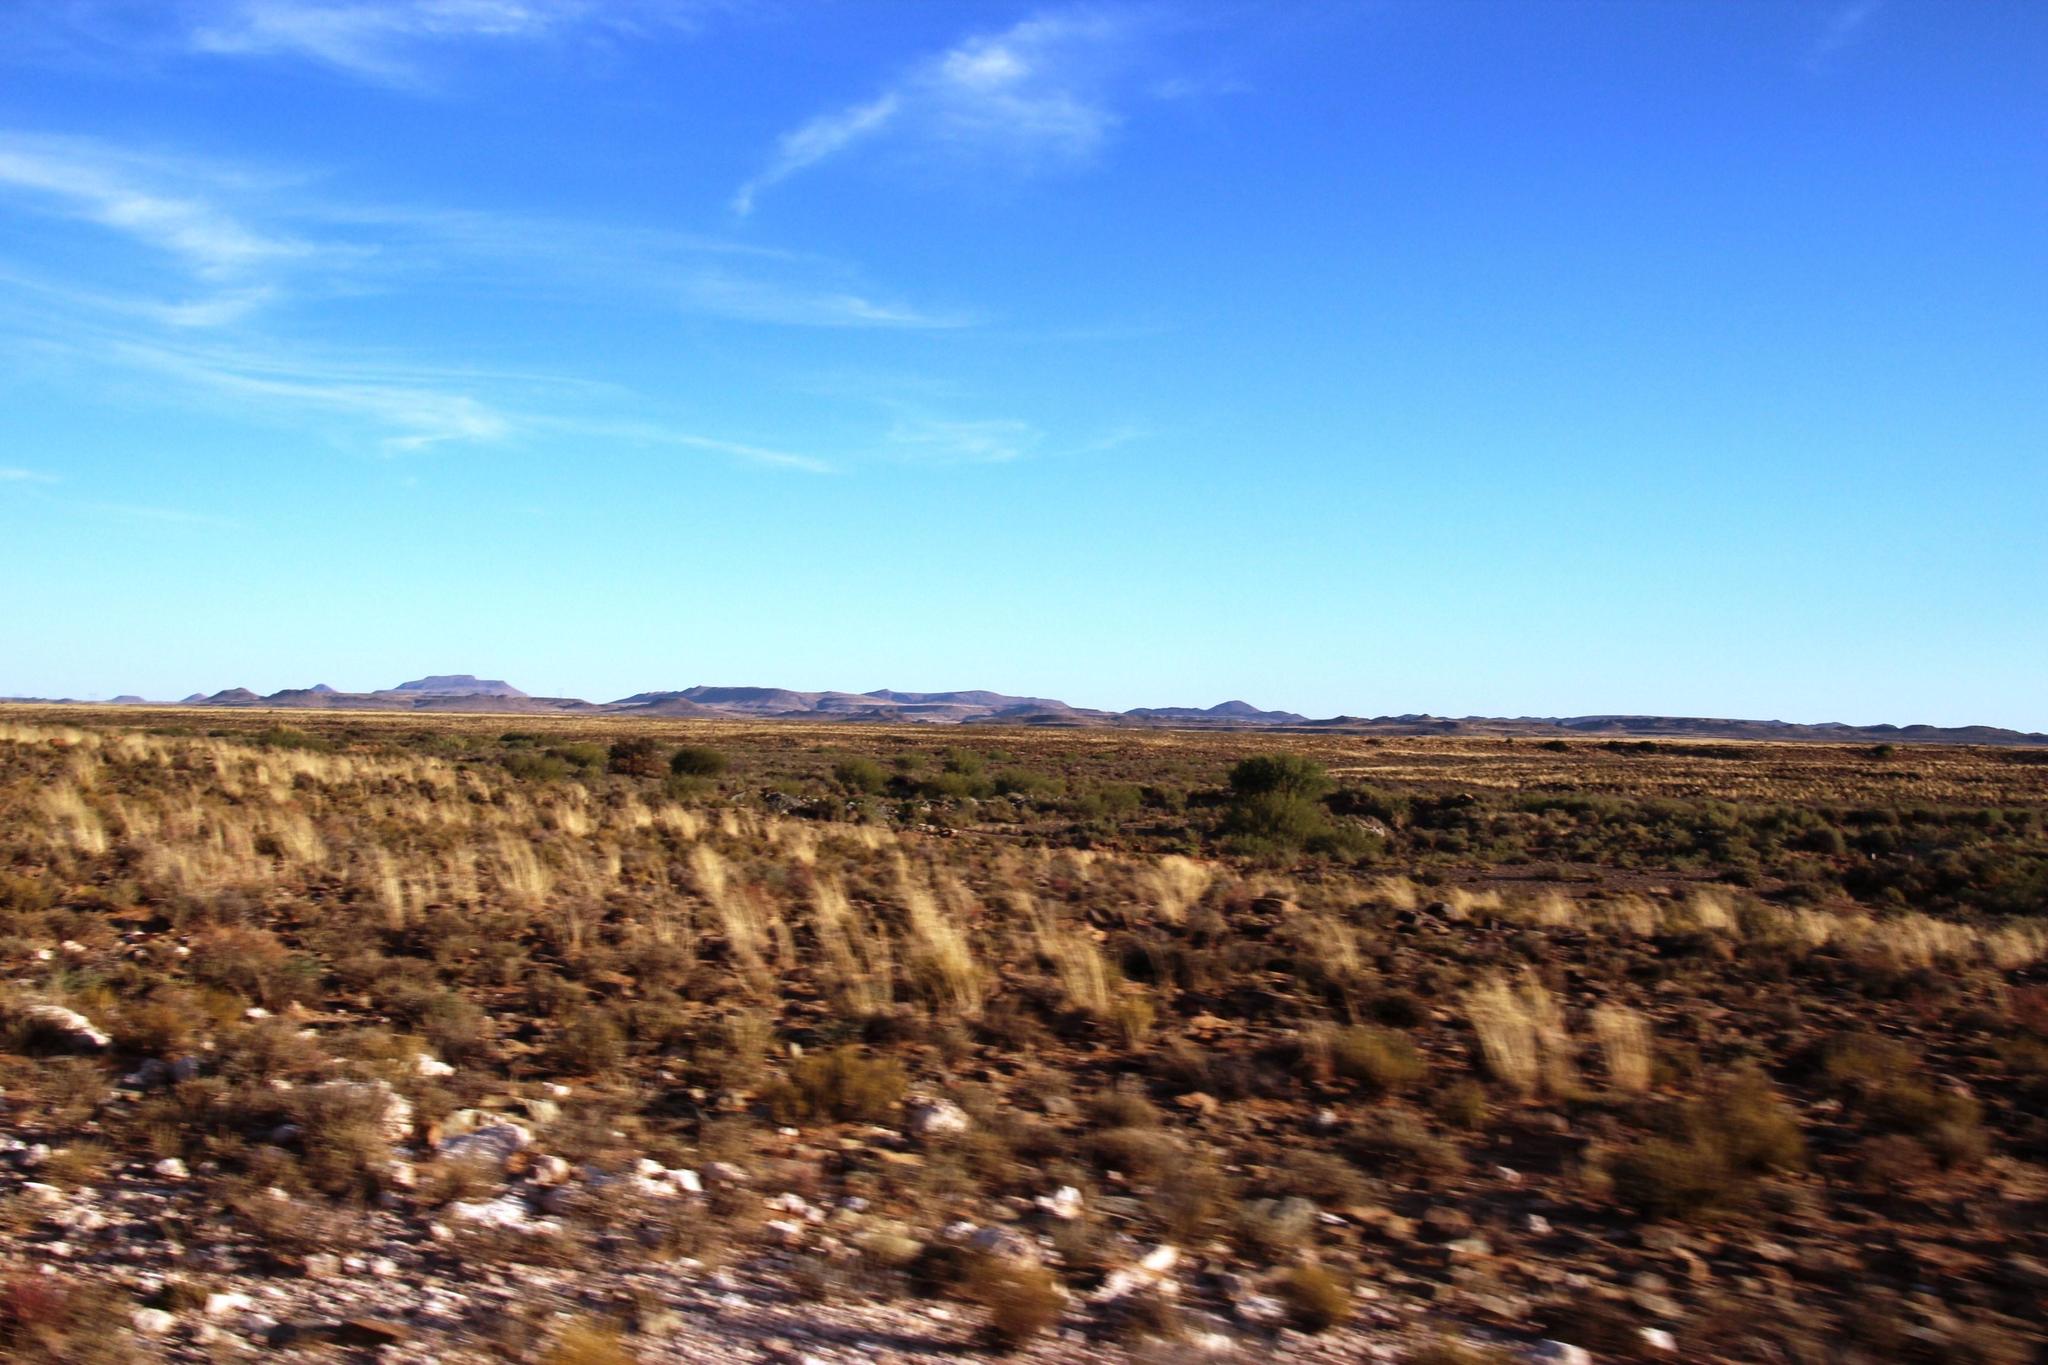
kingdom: Plantae
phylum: Tracheophyta
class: Magnoliopsida
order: Fabales
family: Fabaceae
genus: Prosopis
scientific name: Prosopis pubescens
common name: Screw-bean
